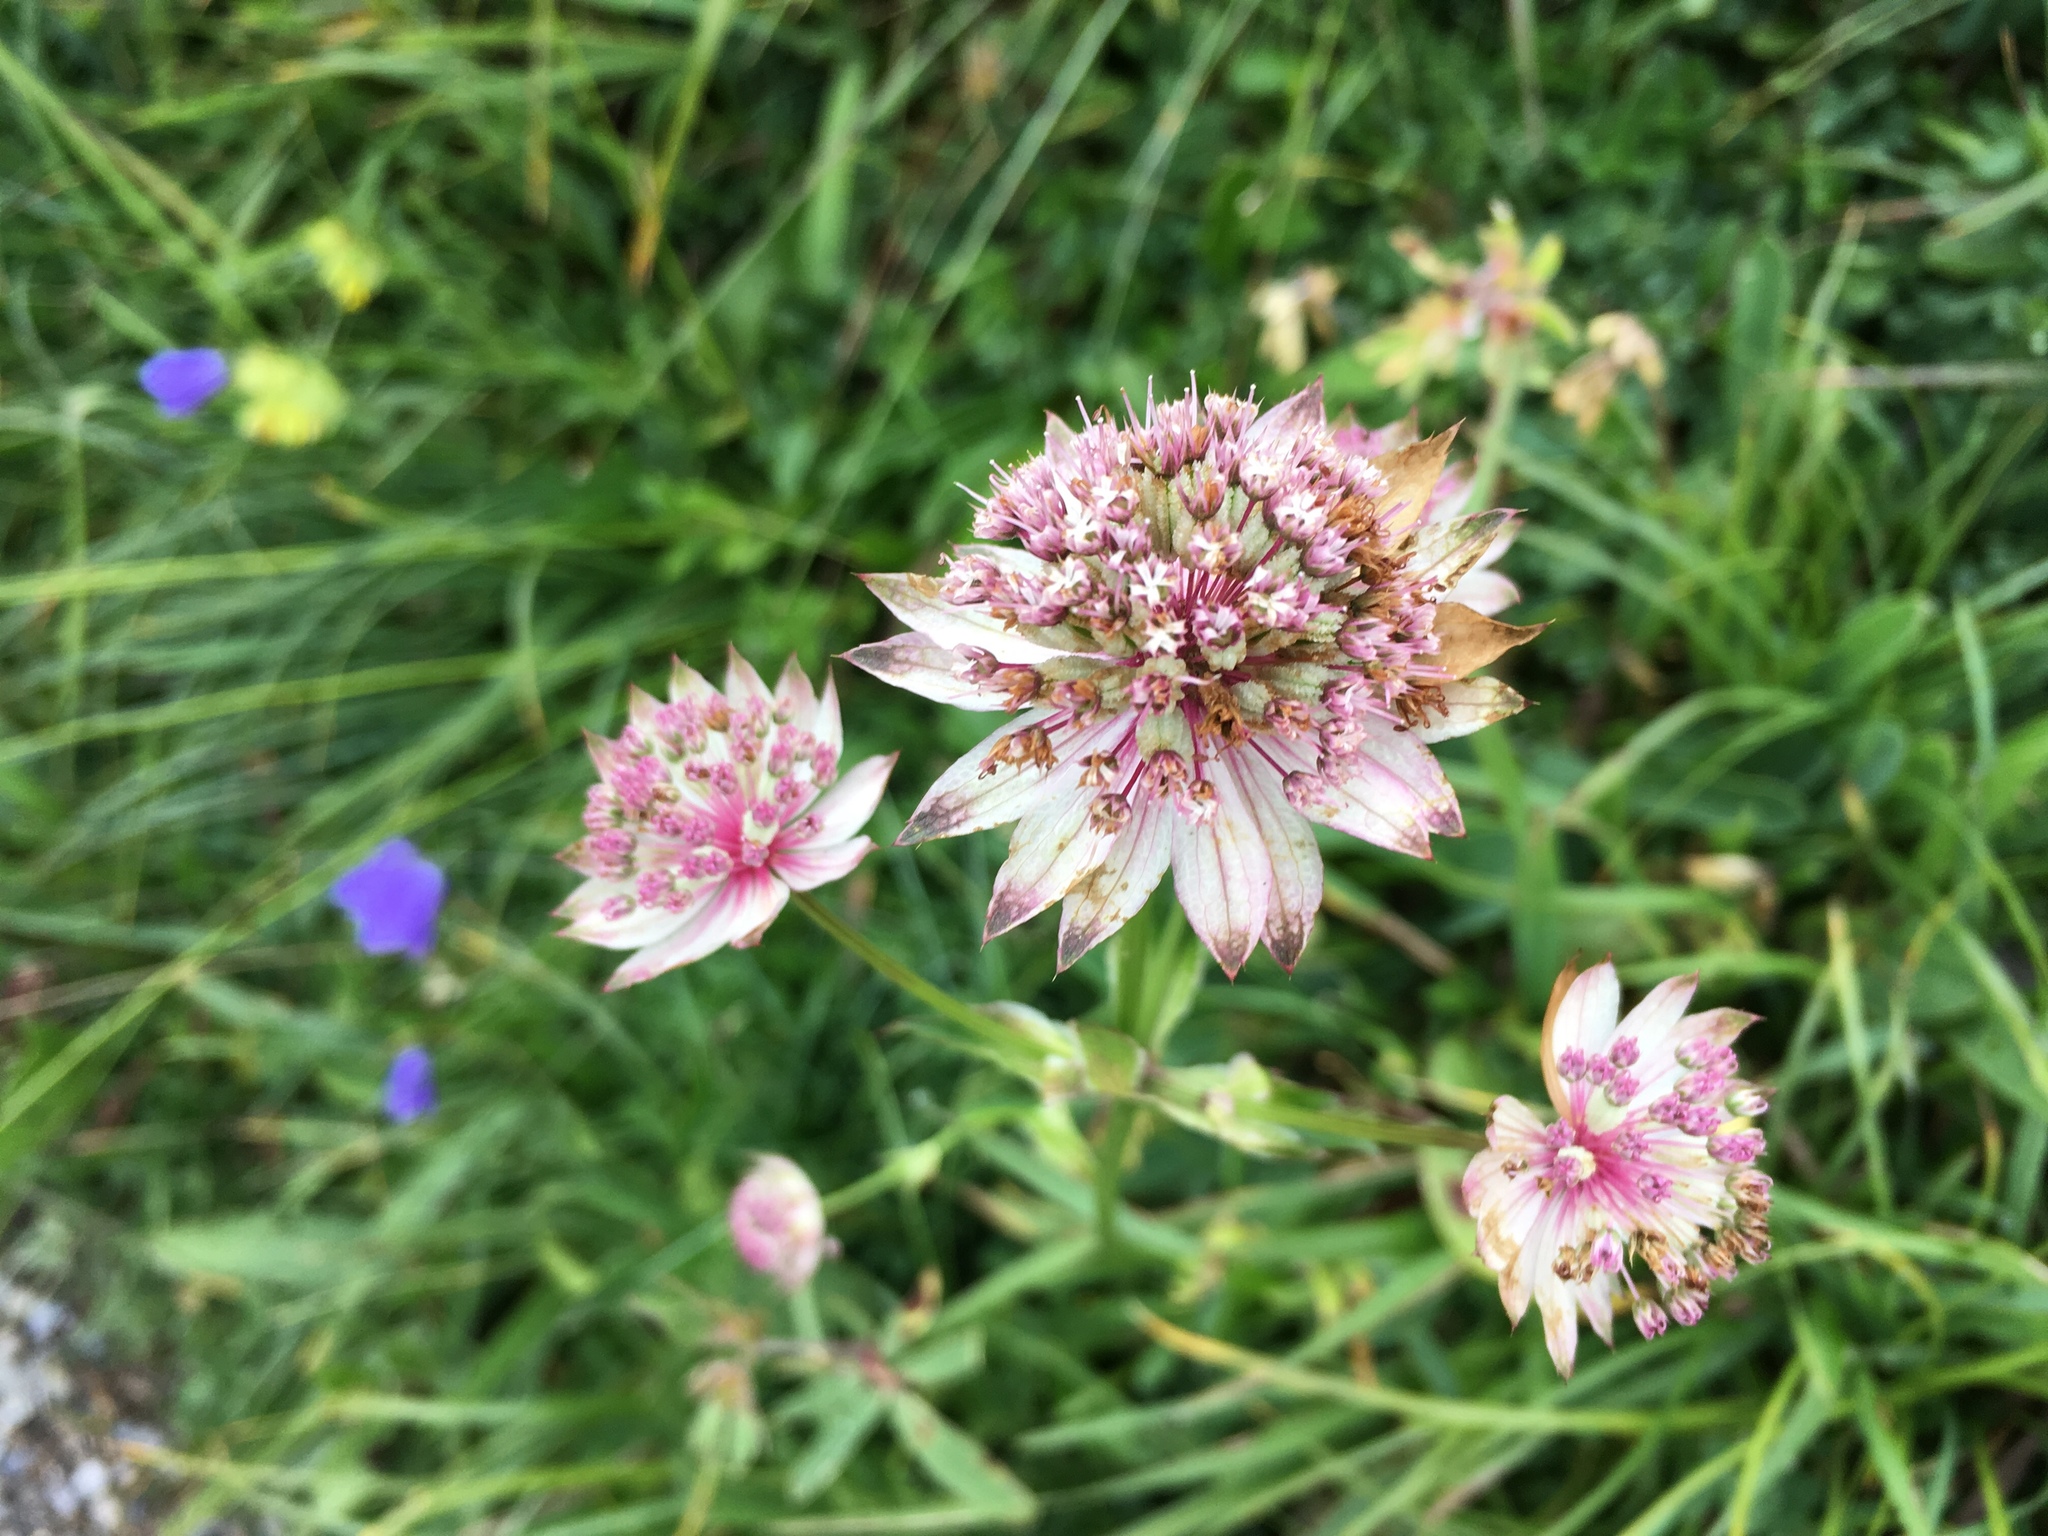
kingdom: Plantae
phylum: Tracheophyta
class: Magnoliopsida
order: Apiales
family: Apiaceae
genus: Astrantia
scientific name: Astrantia major
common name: Greater masterwort
